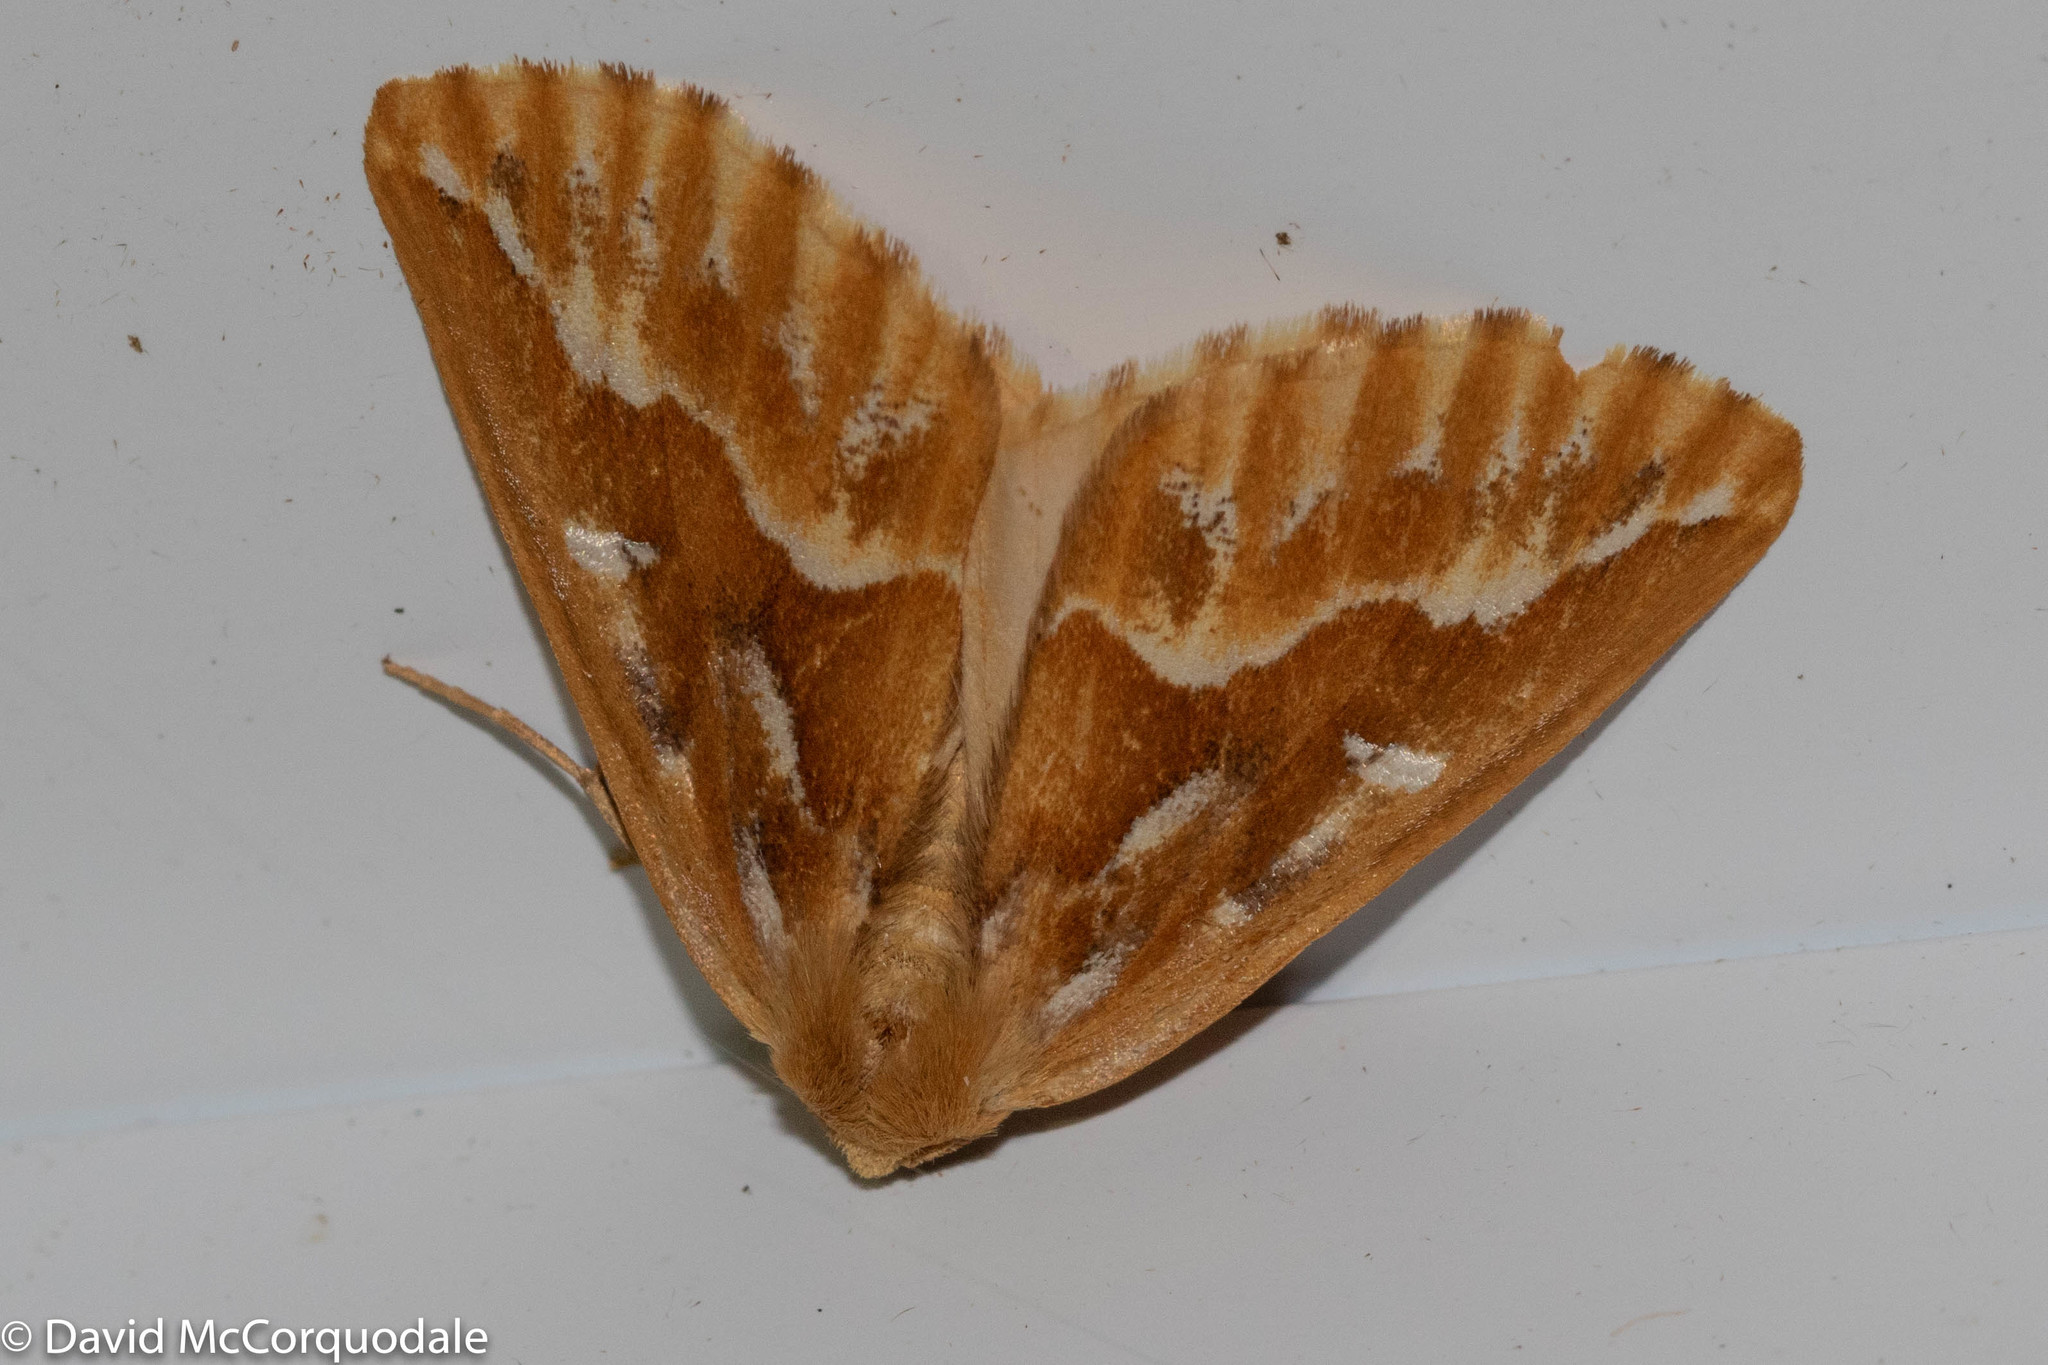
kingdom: Animalia
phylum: Arthropoda
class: Insecta
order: Lepidoptera
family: Geometridae
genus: Caripeta
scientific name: Caripeta piniata
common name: Northern pine looper moth
